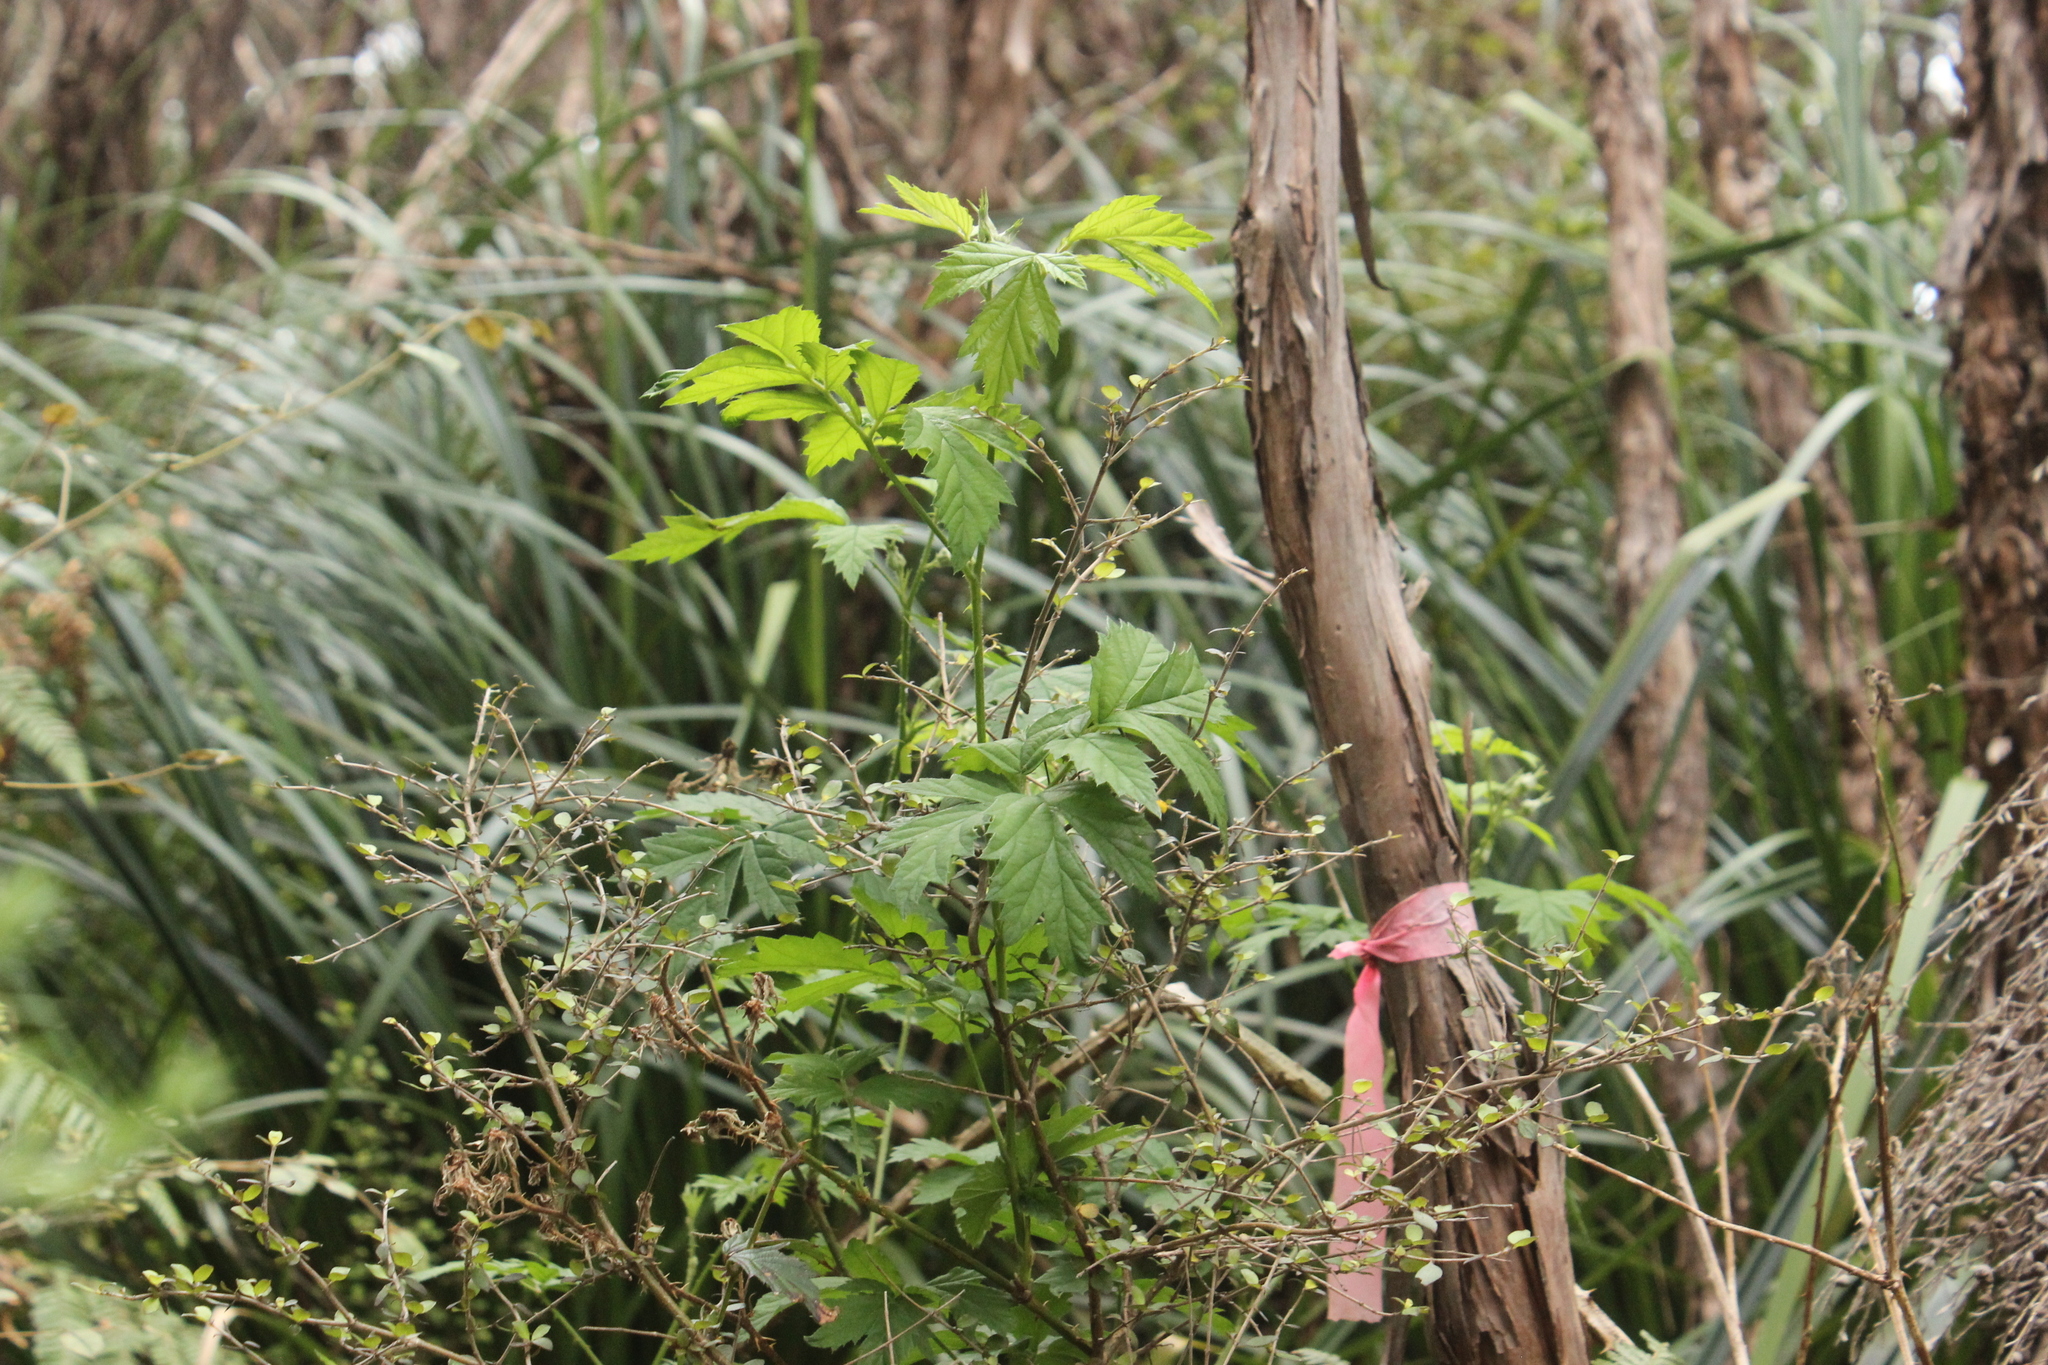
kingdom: Plantae
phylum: Tracheophyta
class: Magnoliopsida
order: Rosales
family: Rosaceae
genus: Rubus
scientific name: Rubus laciniatus
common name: Evergreen blackberry
